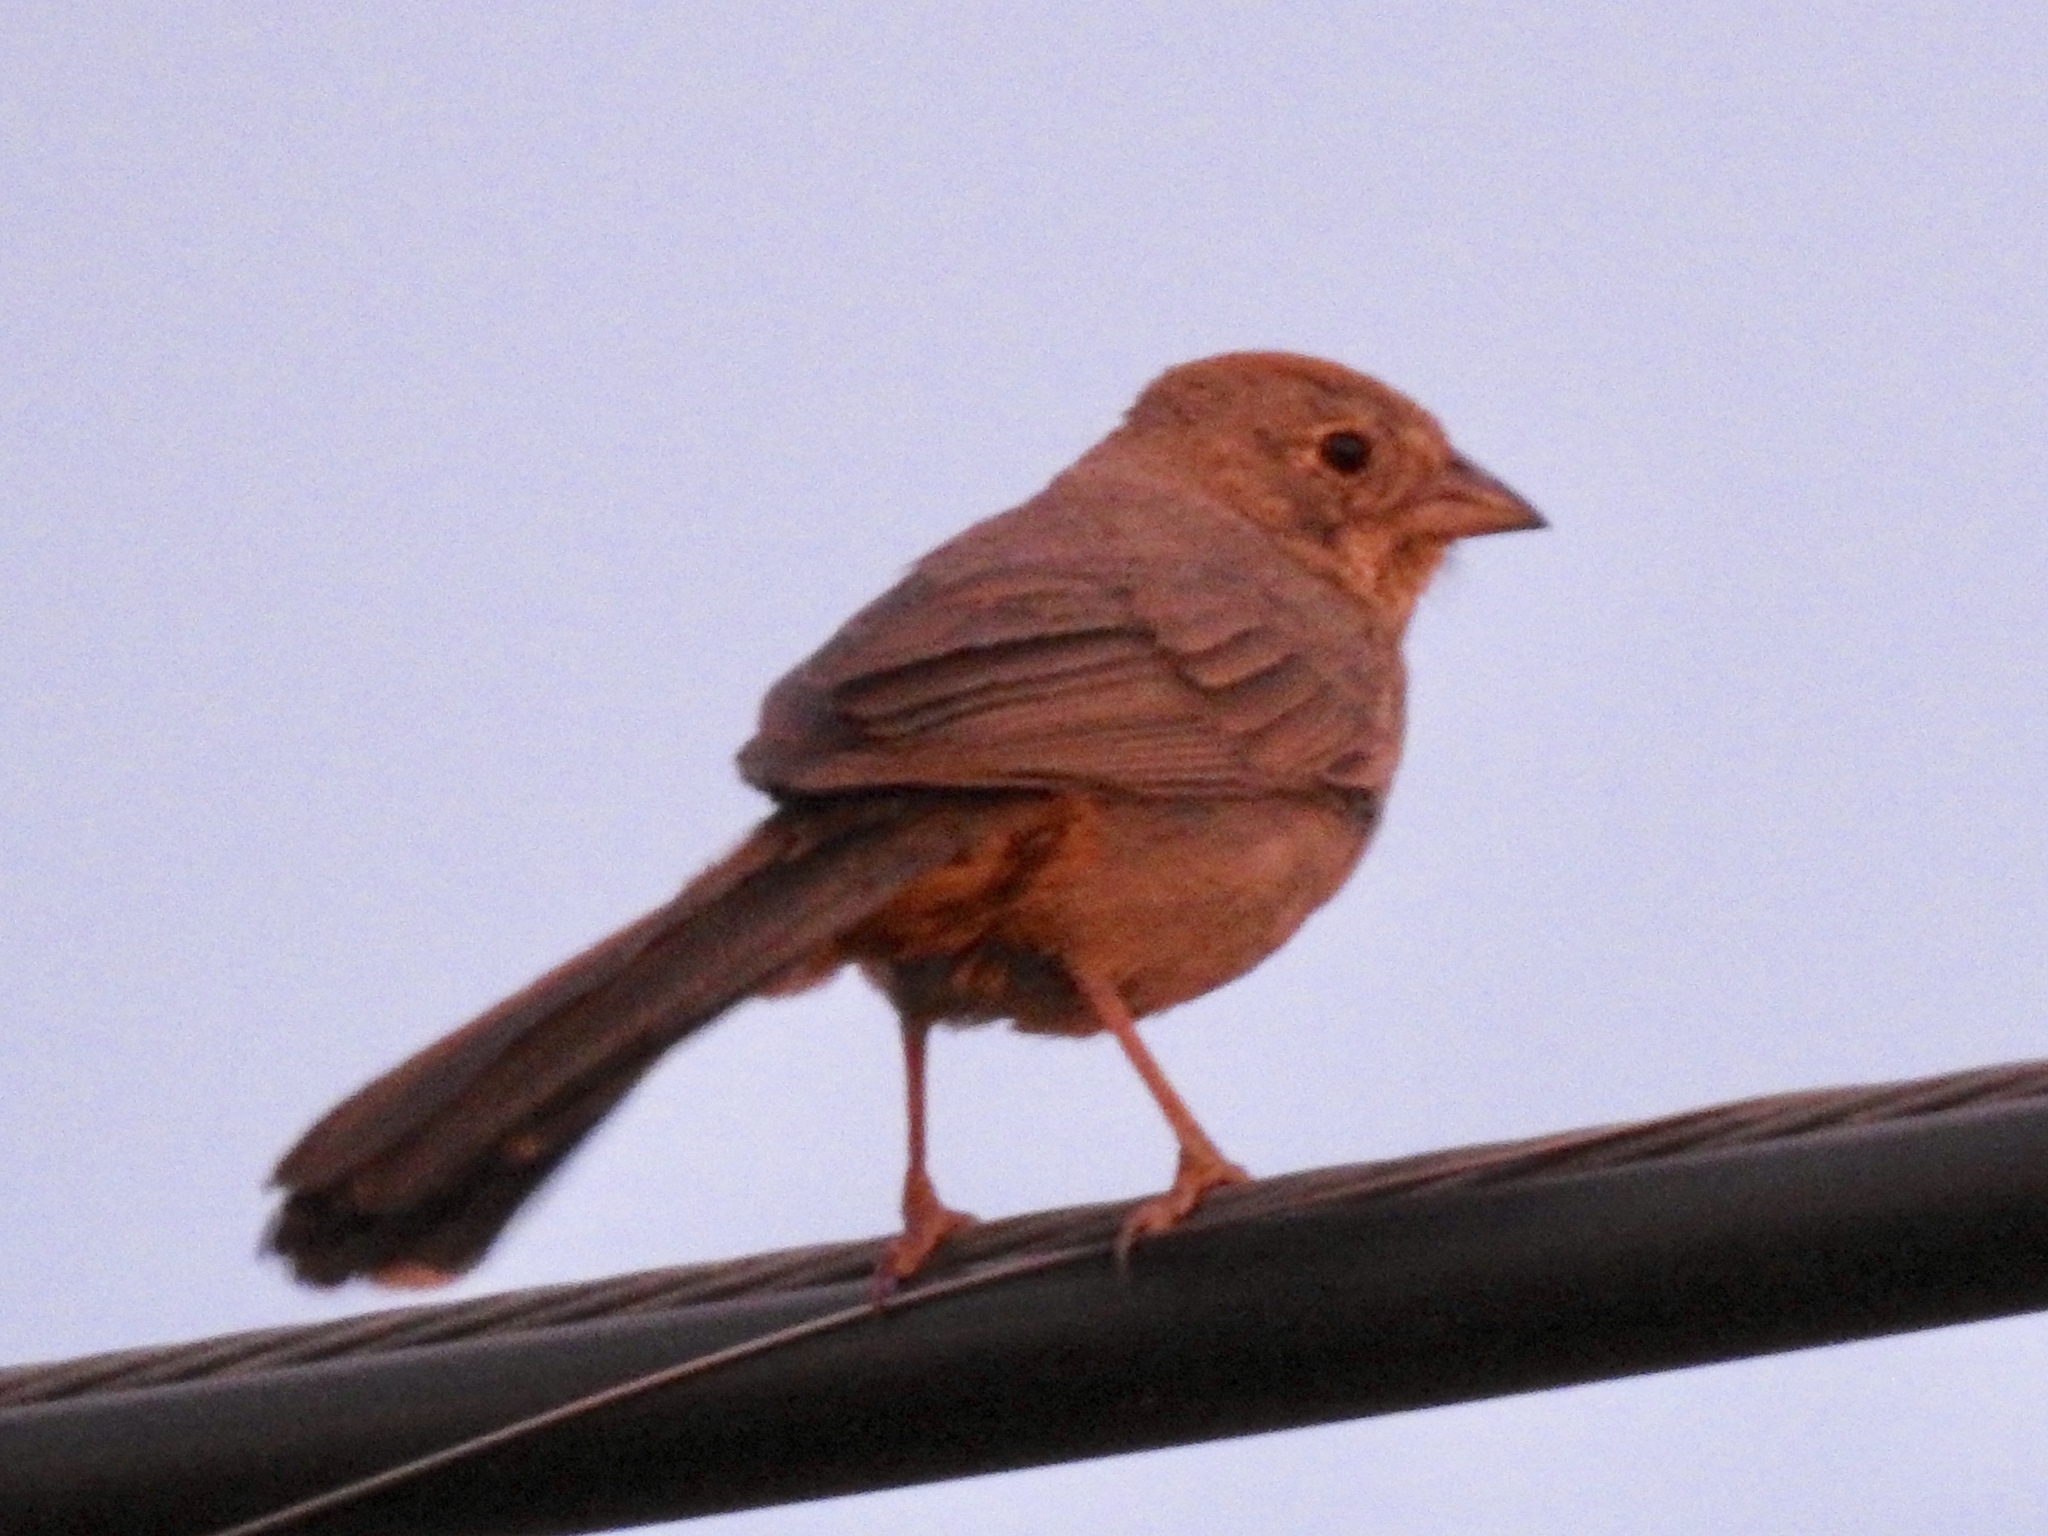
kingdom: Animalia
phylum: Chordata
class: Aves
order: Passeriformes
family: Passerellidae
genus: Melozone
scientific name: Melozone fusca
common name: Canyon towhee
